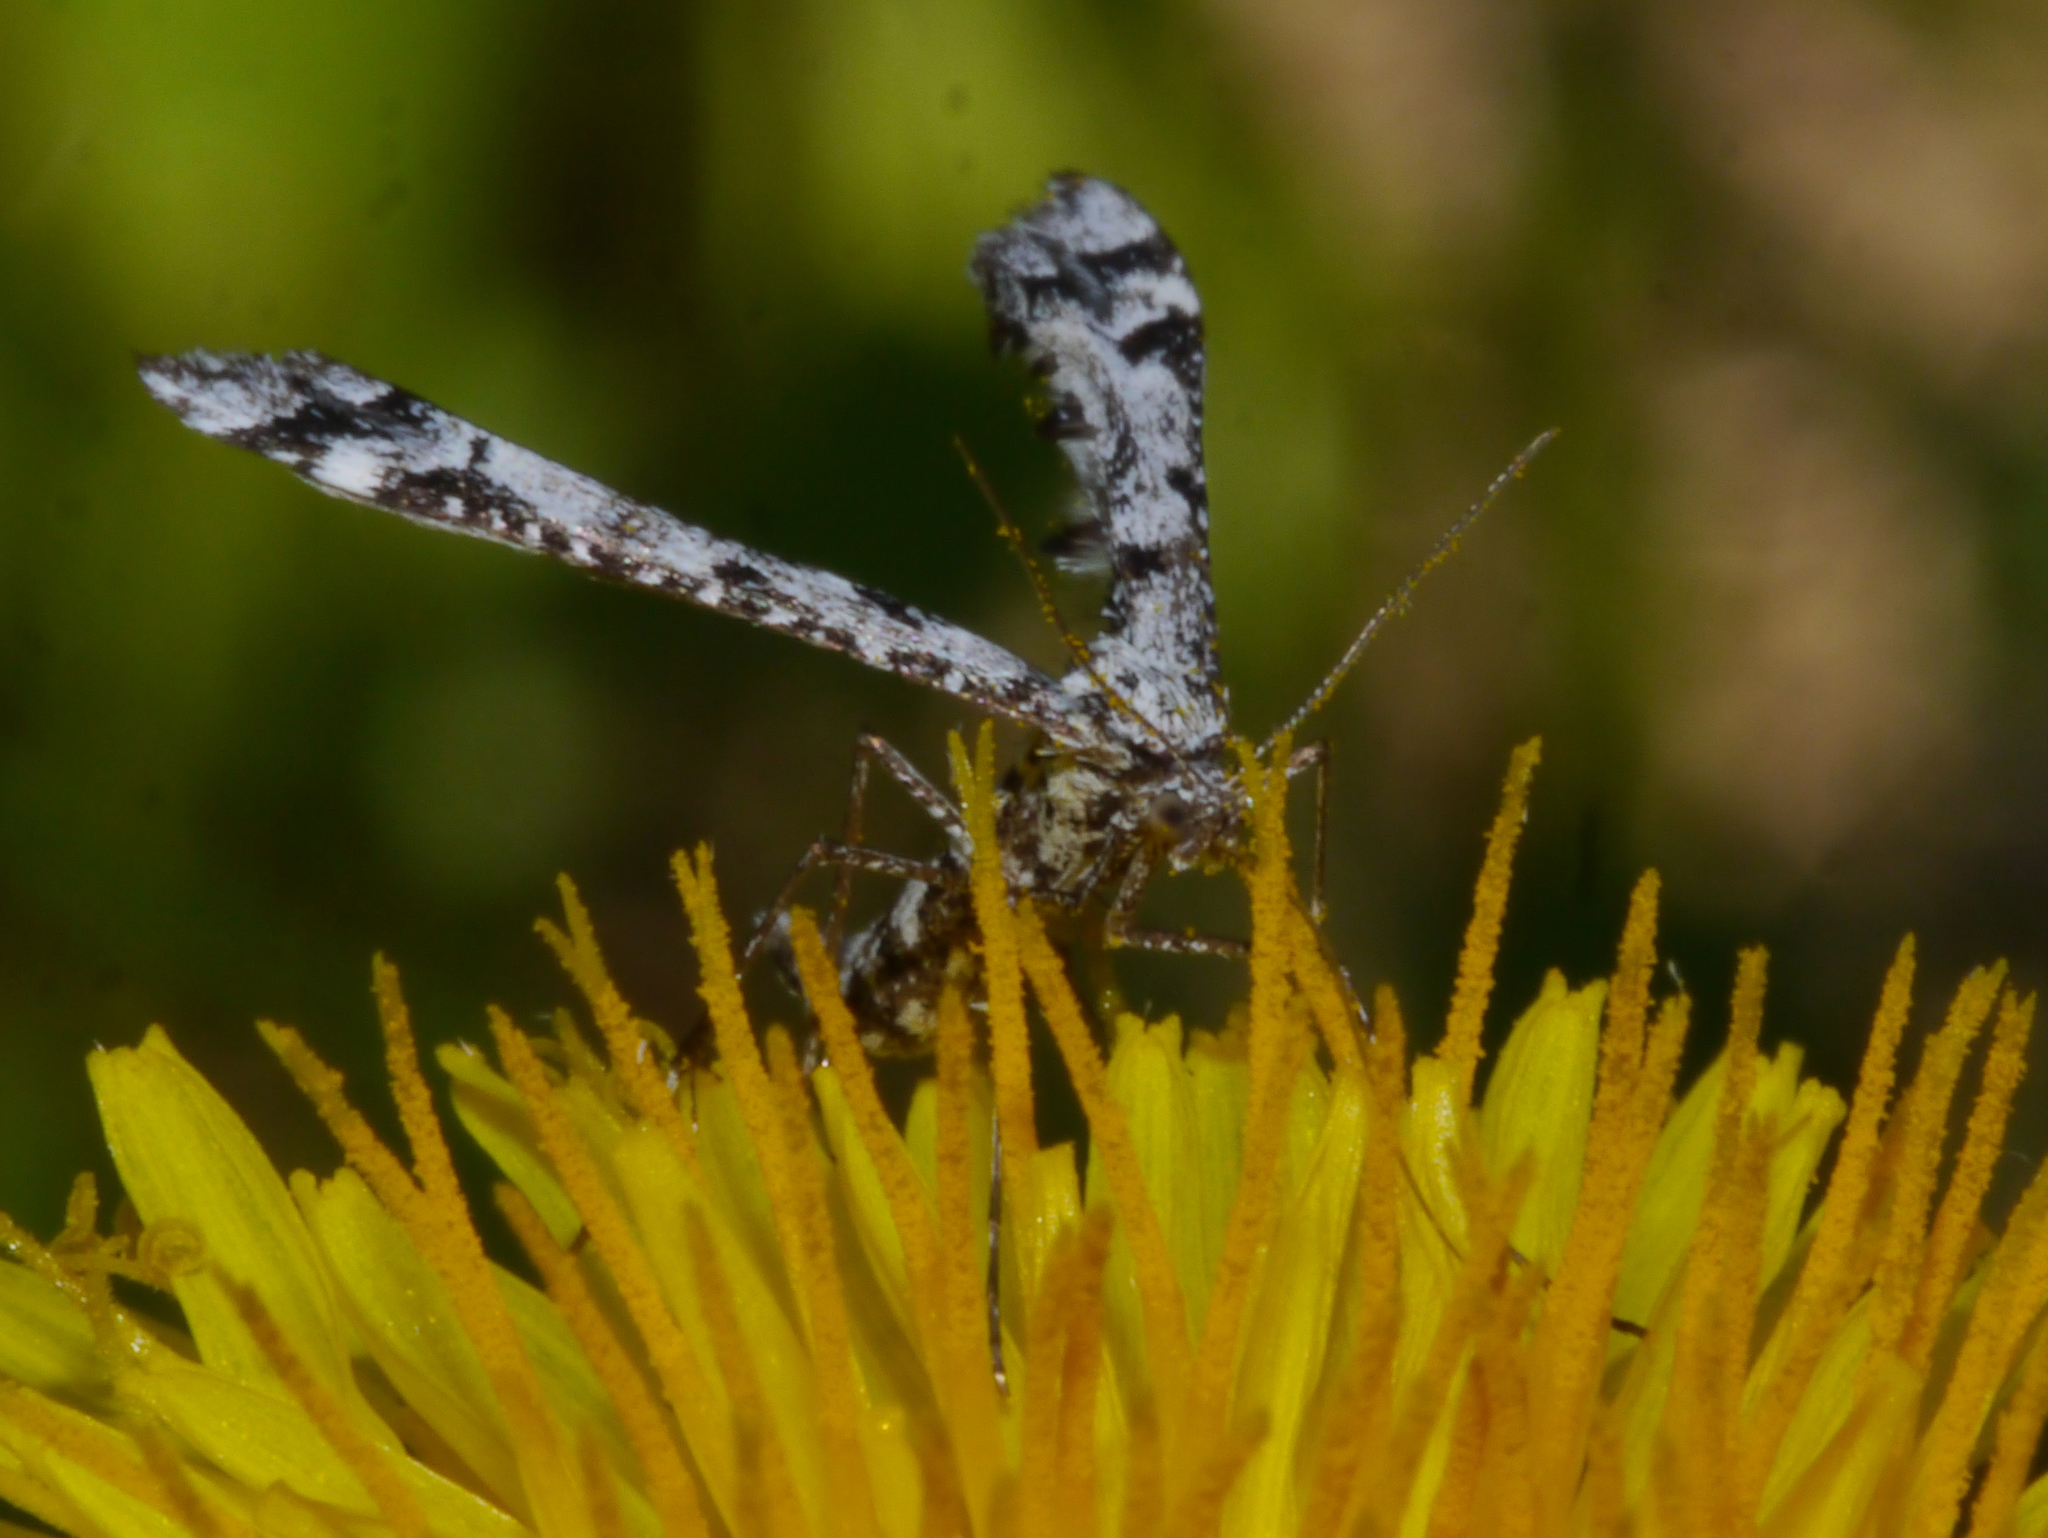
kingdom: Animalia
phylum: Arthropoda
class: Insecta
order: Lepidoptera
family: Pterophoridae
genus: Amblyptilia
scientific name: Amblyptilia pica
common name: Geranium plume moth
